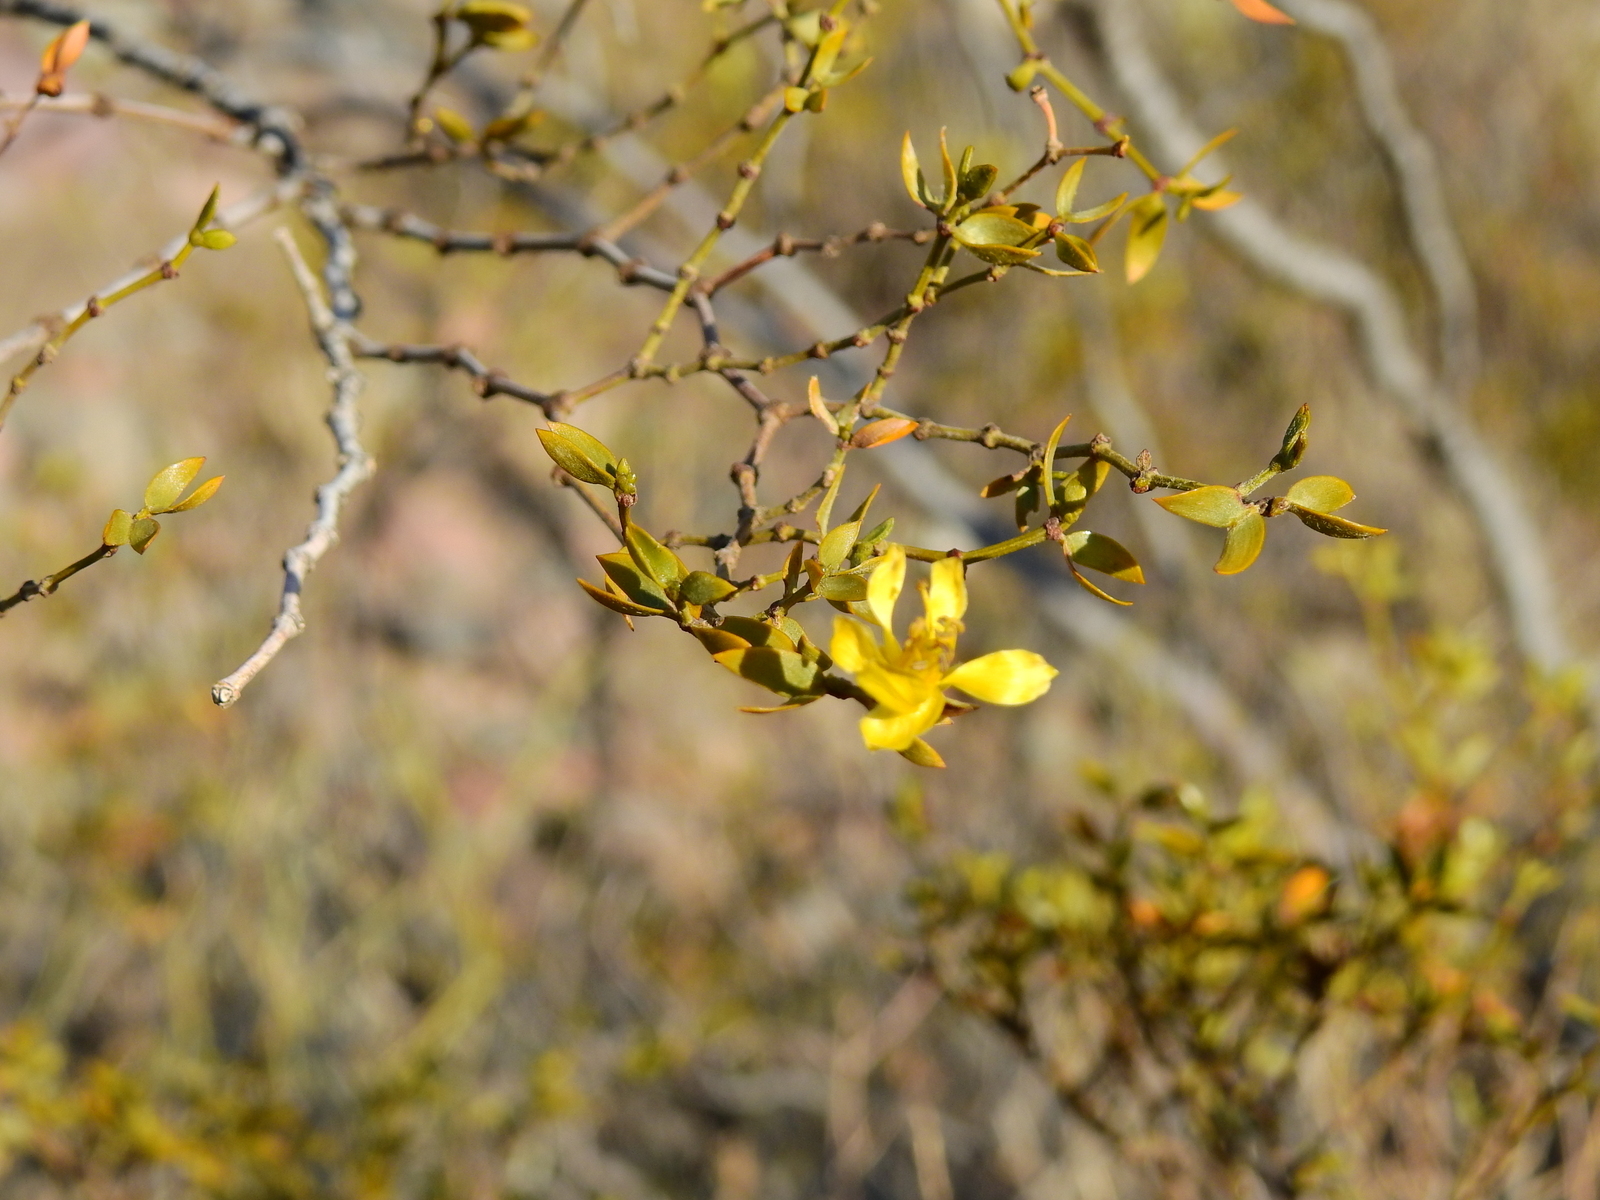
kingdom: Plantae
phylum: Tracheophyta
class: Magnoliopsida
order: Zygophyllales
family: Zygophyllaceae
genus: Larrea
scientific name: Larrea divaricata
